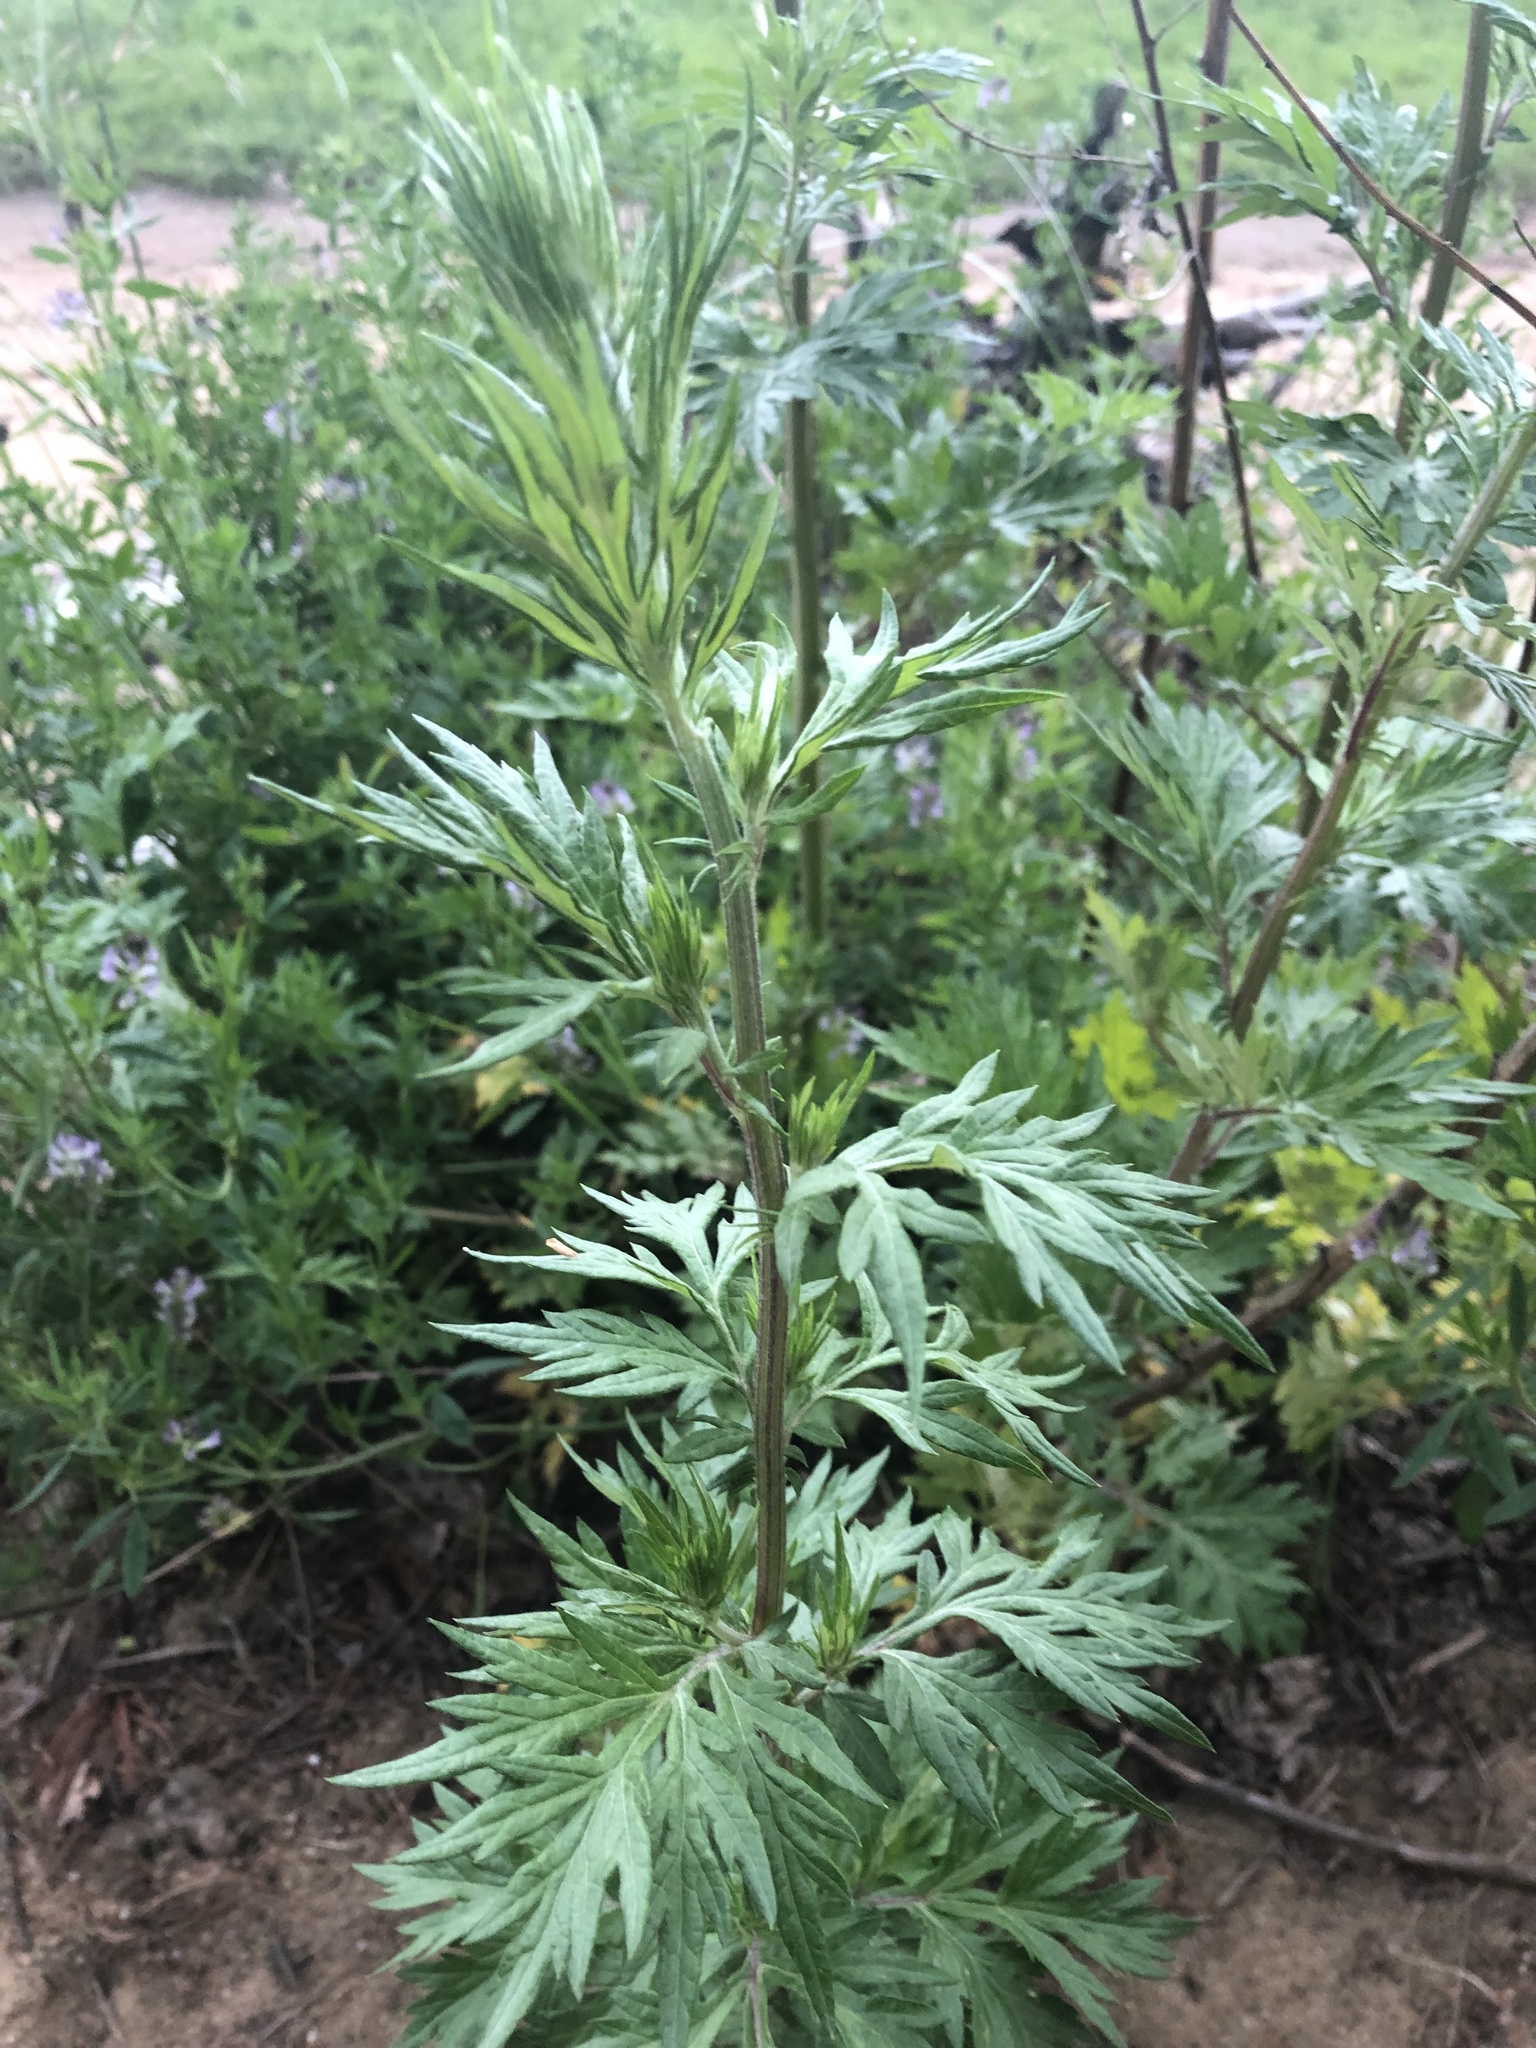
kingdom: Plantae
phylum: Tracheophyta
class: Magnoliopsida
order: Asterales
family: Asteraceae
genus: Artemisia
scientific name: Artemisia vulgaris
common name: Mugwort
